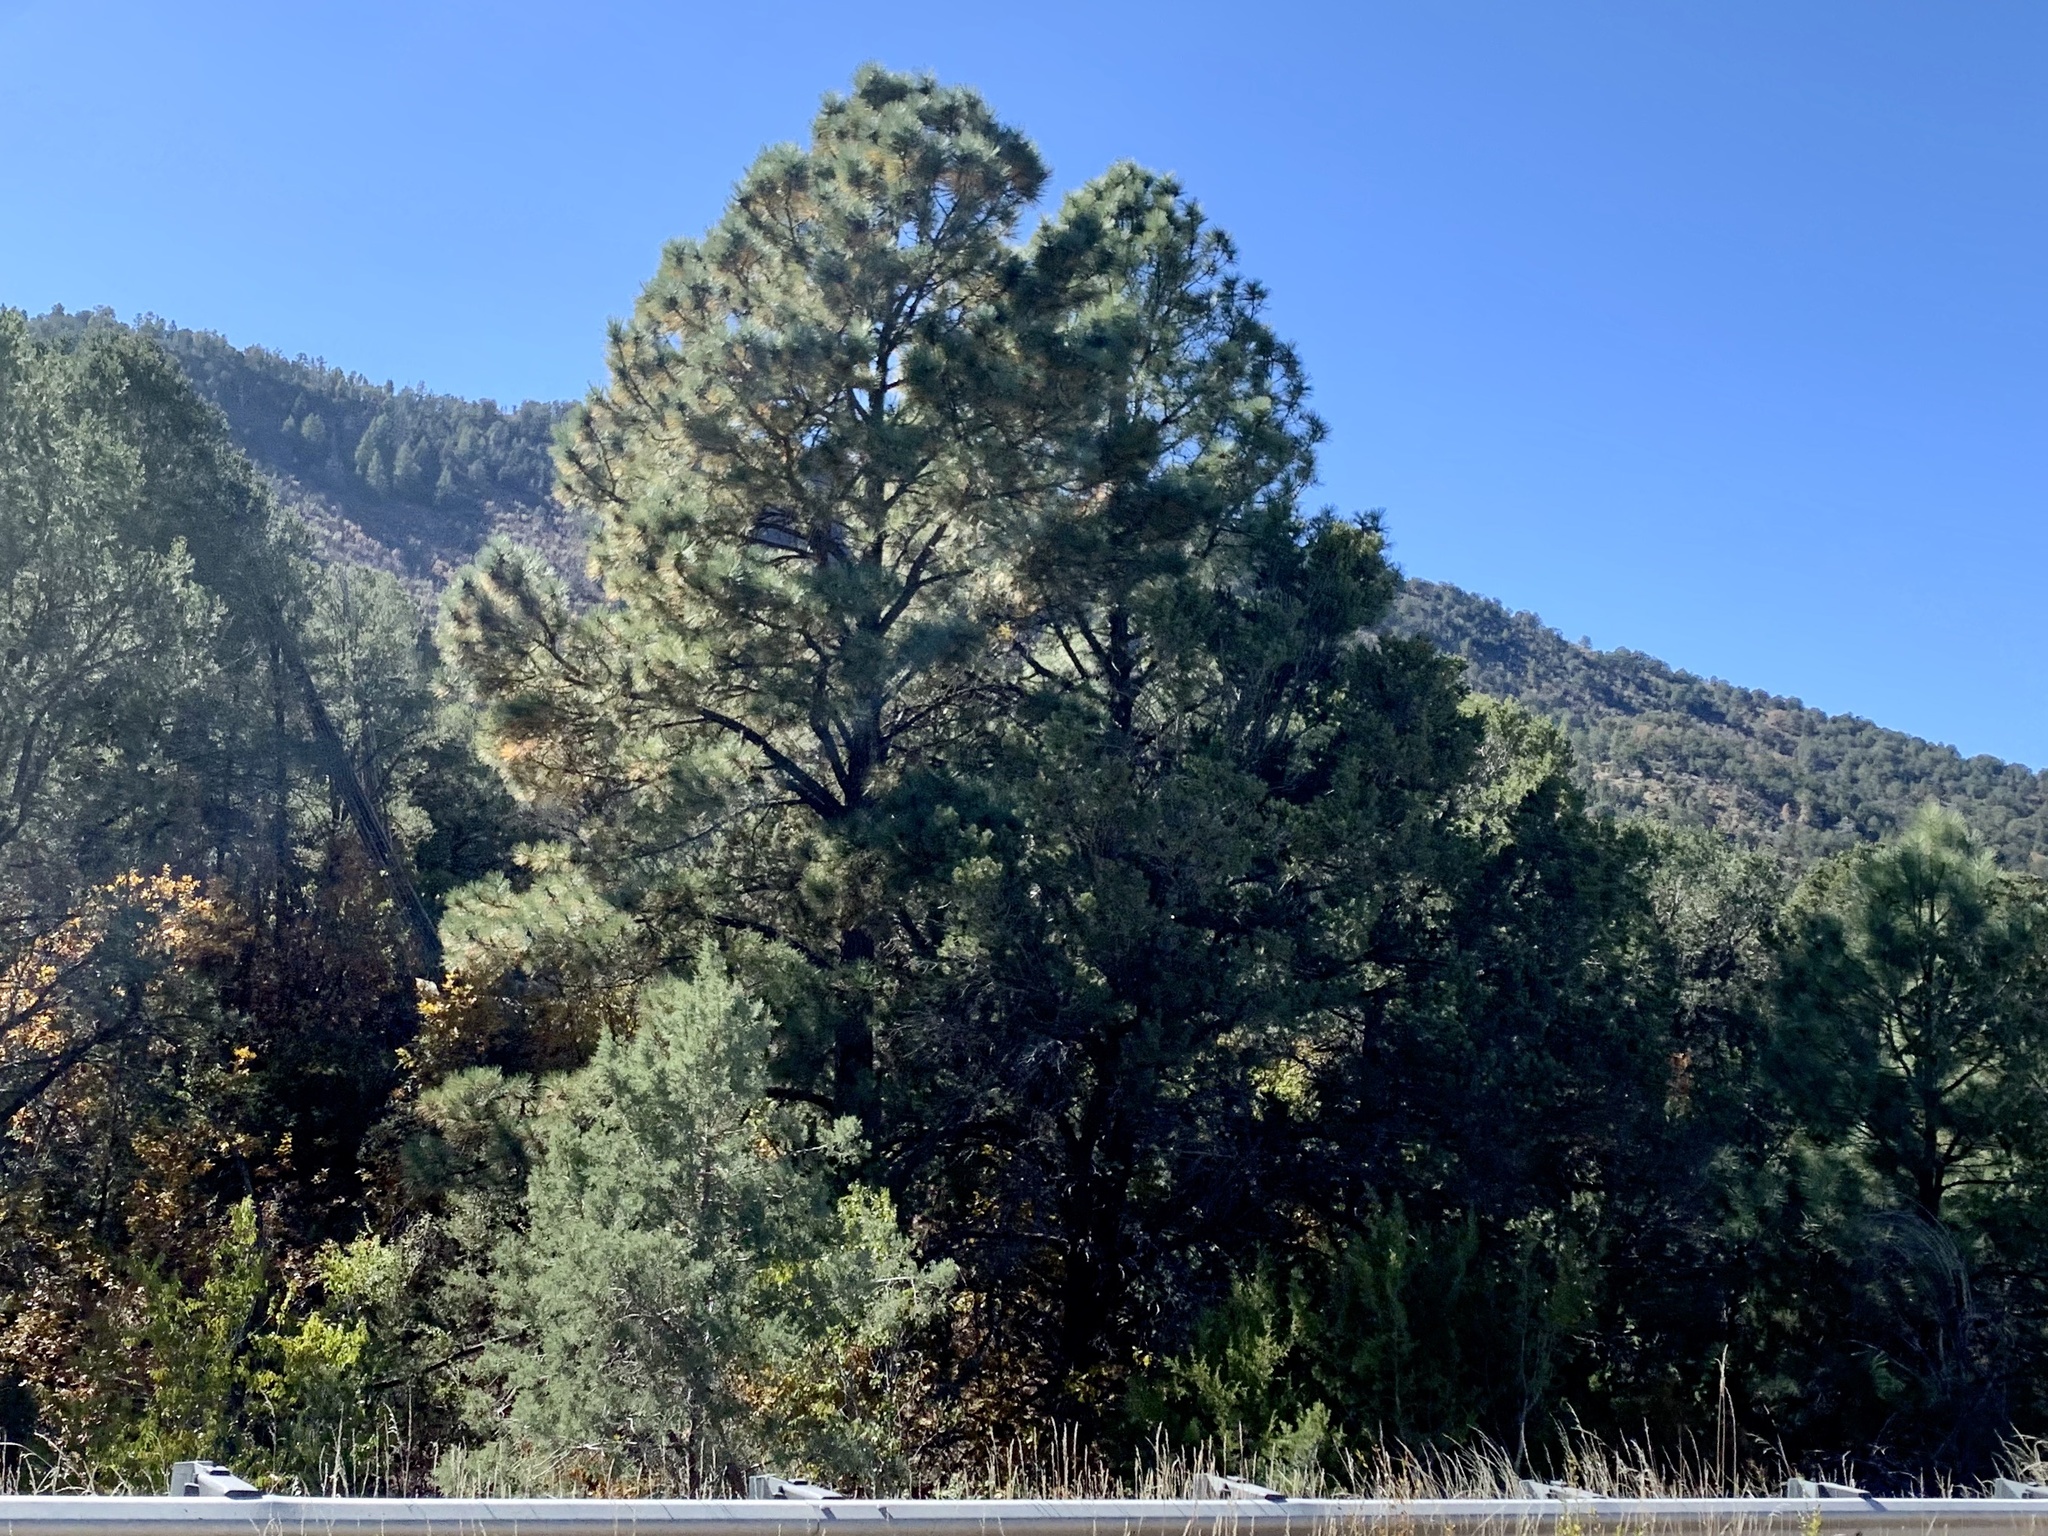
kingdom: Plantae
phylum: Tracheophyta
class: Pinopsida
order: Pinales
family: Pinaceae
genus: Pinus
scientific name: Pinus ponderosa
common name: Western yellow-pine
